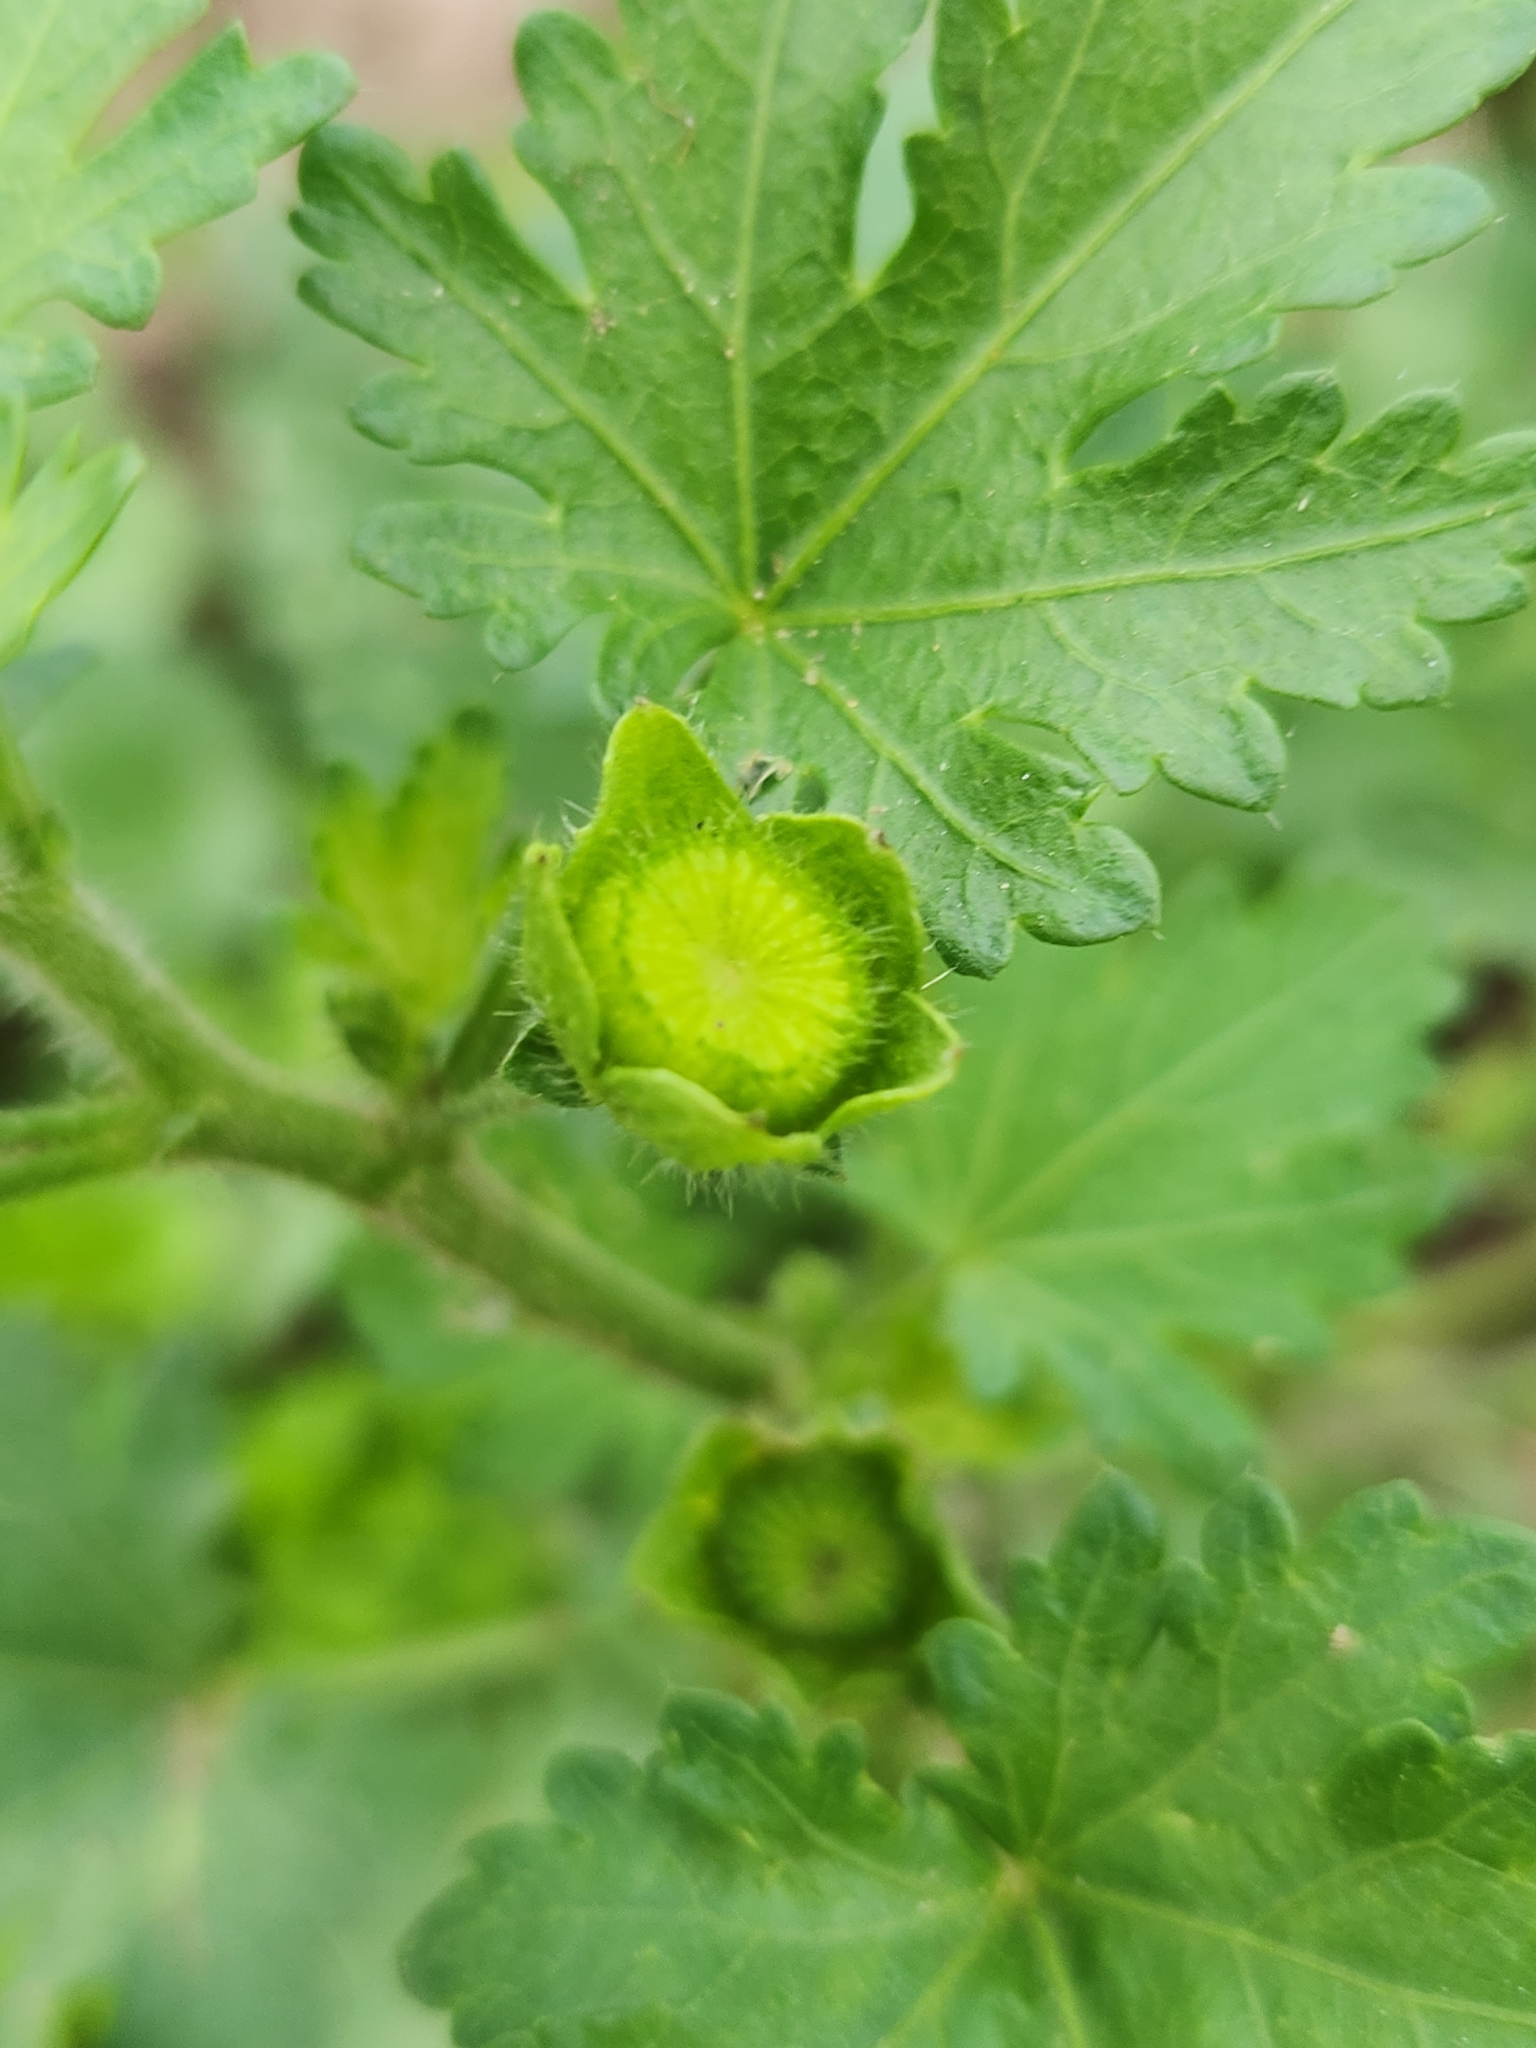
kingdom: Plantae
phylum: Tracheophyta
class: Magnoliopsida
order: Malvales
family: Malvaceae
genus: Modiola
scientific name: Modiola caroliniana
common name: Carolina bristlemallow
